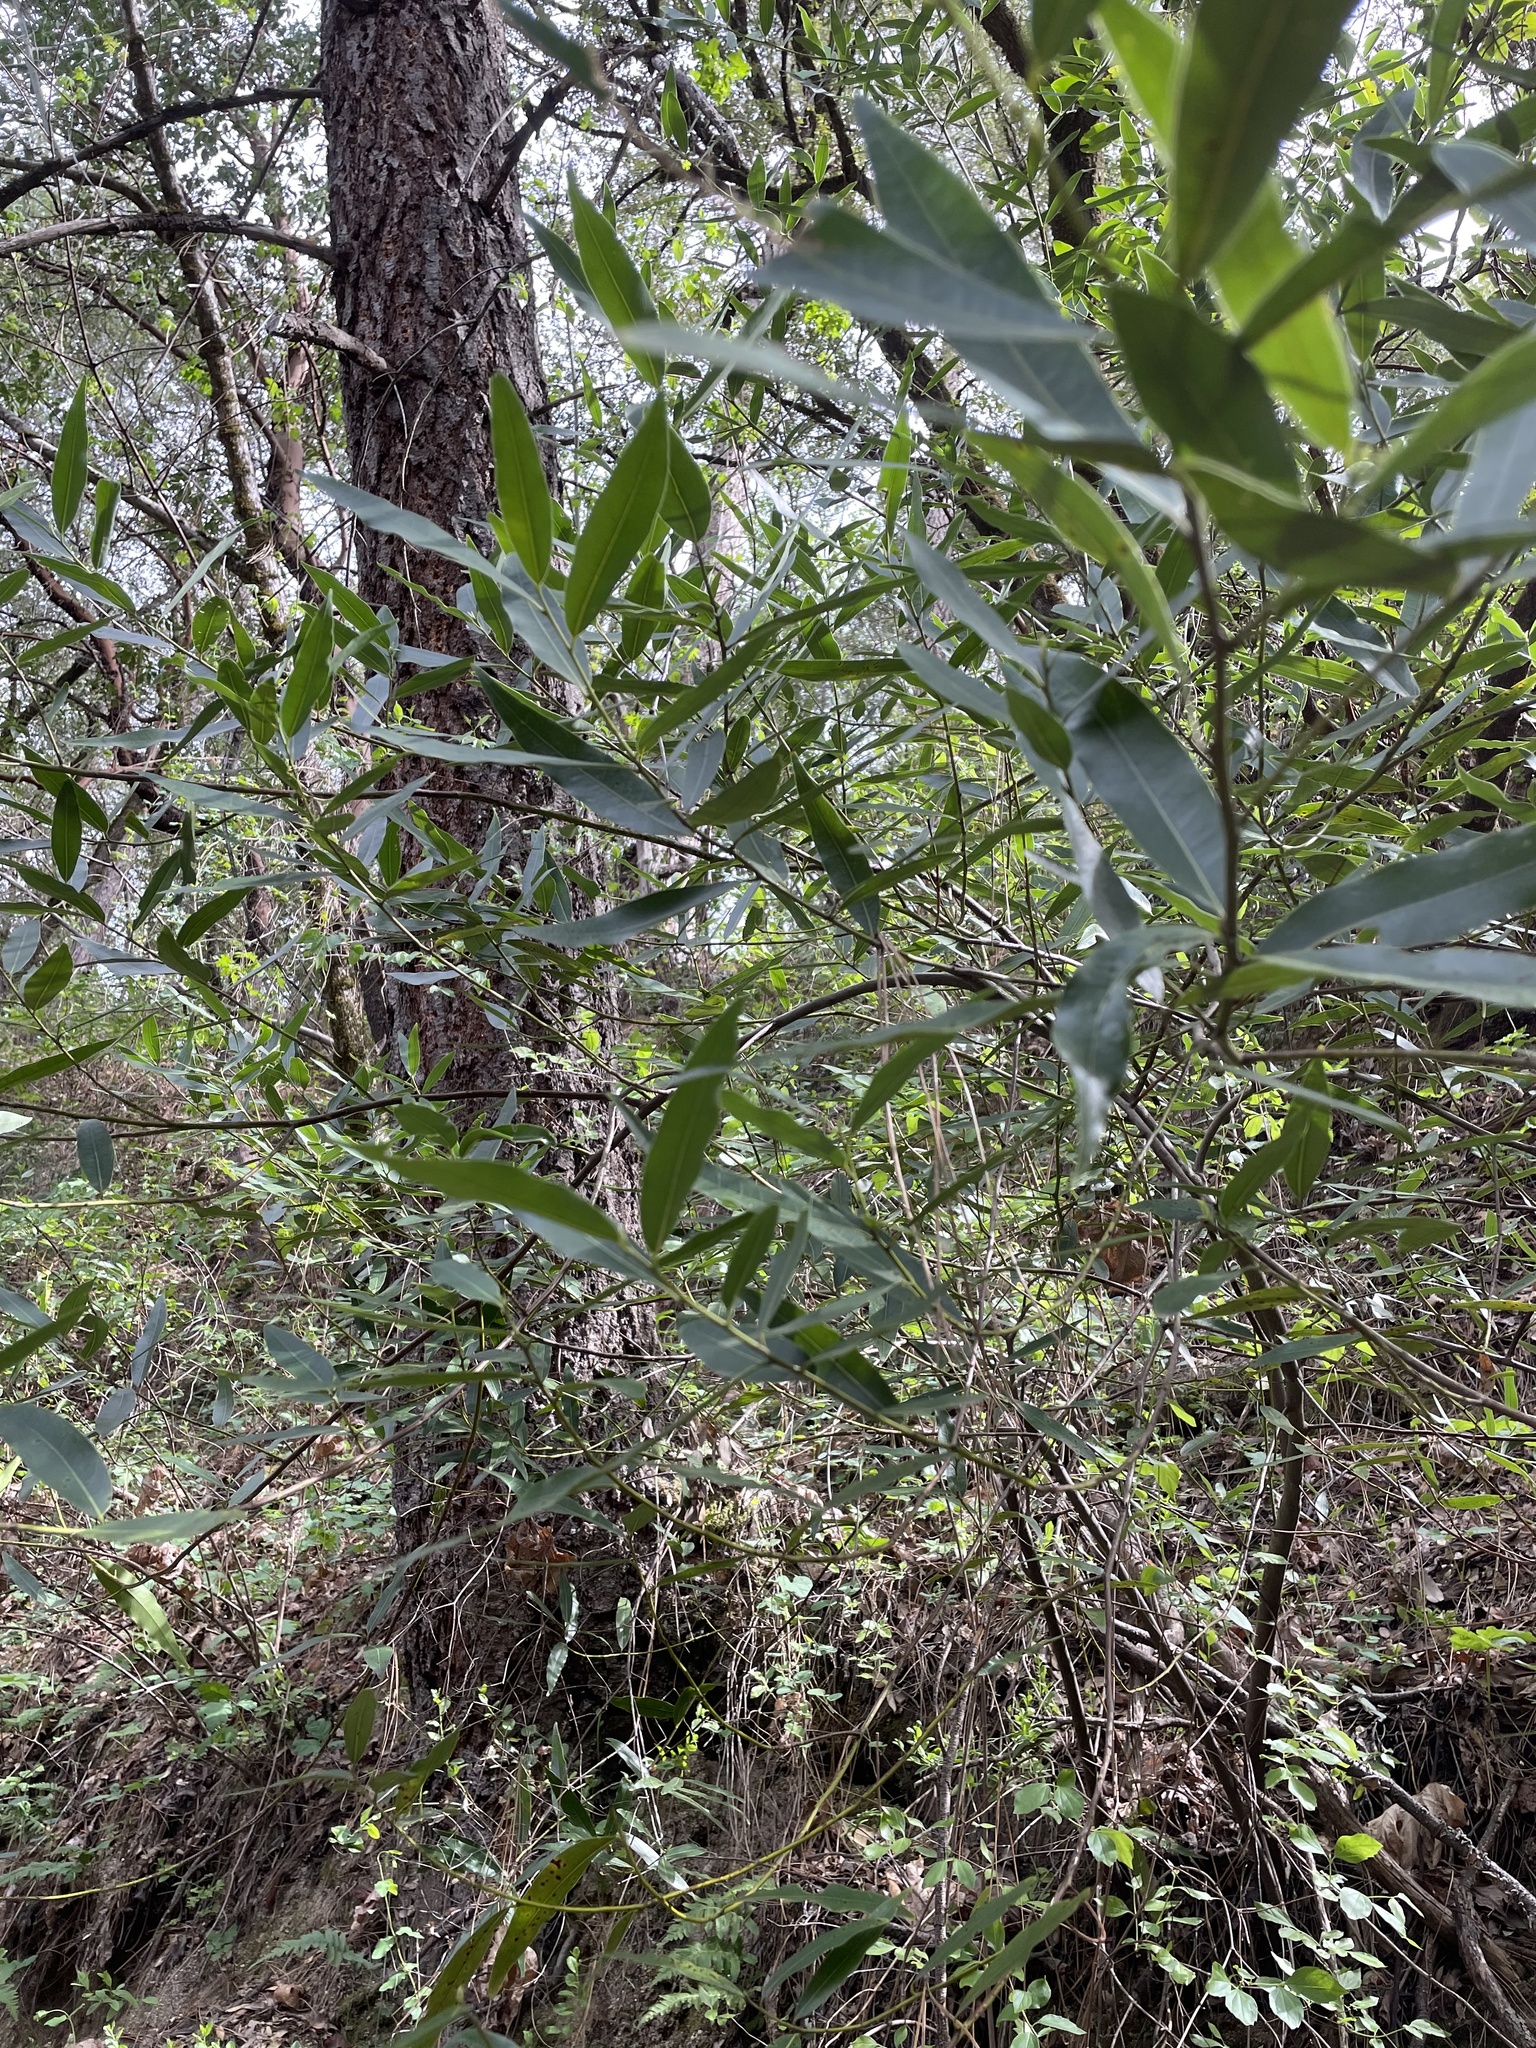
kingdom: Plantae
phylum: Tracheophyta
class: Magnoliopsida
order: Laurales
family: Lauraceae
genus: Umbellularia
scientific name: Umbellularia californica
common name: California bay
